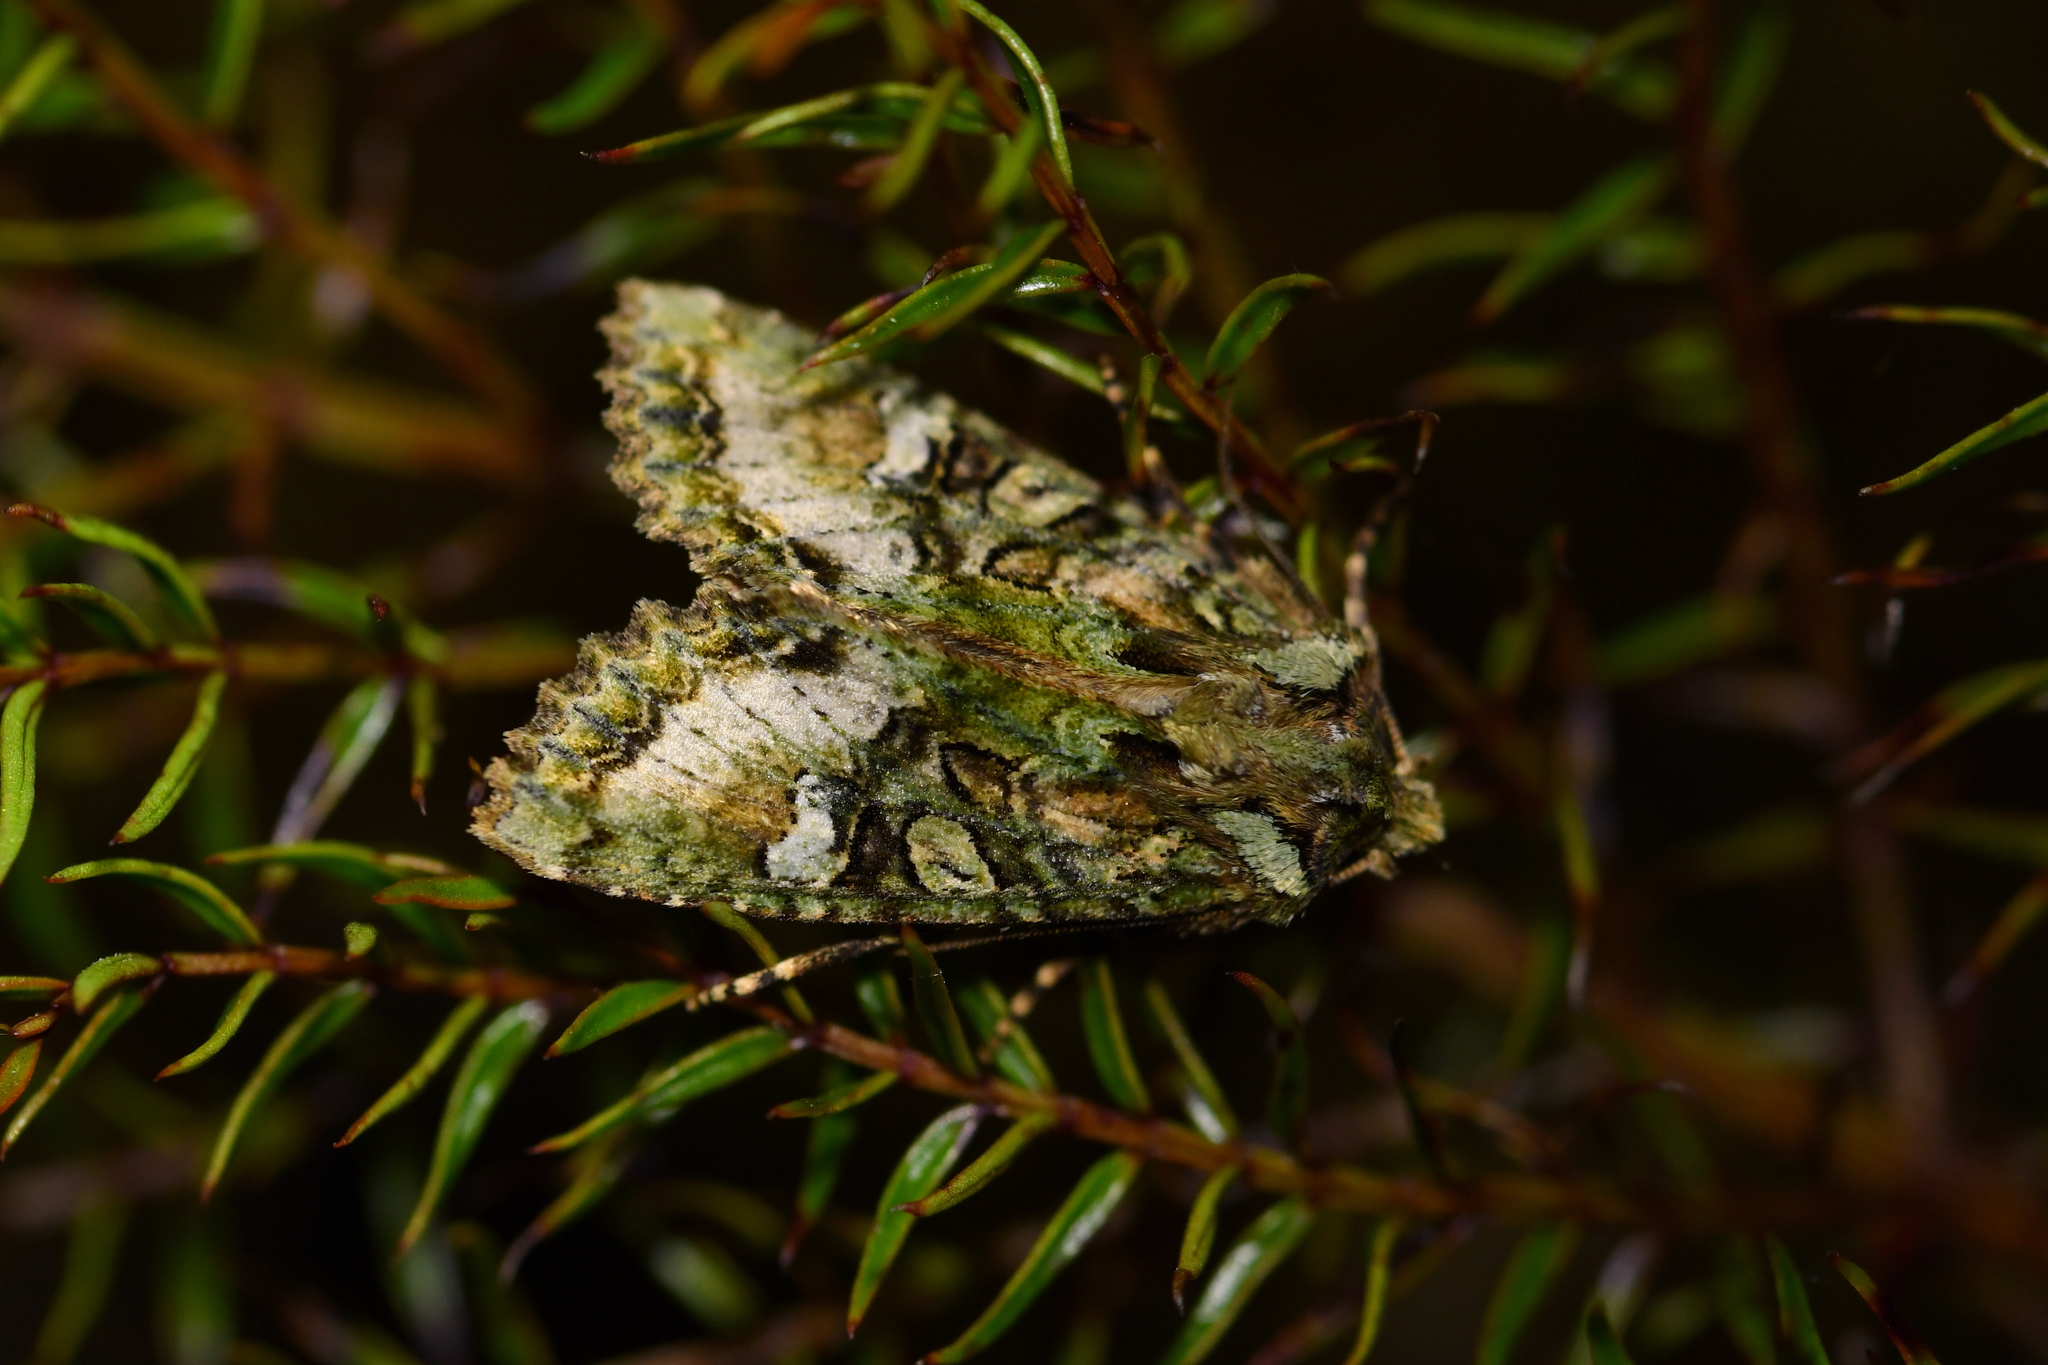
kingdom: Animalia
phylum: Arthropoda
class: Insecta
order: Lepidoptera
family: Noctuidae
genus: Meterana
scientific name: Meterana
